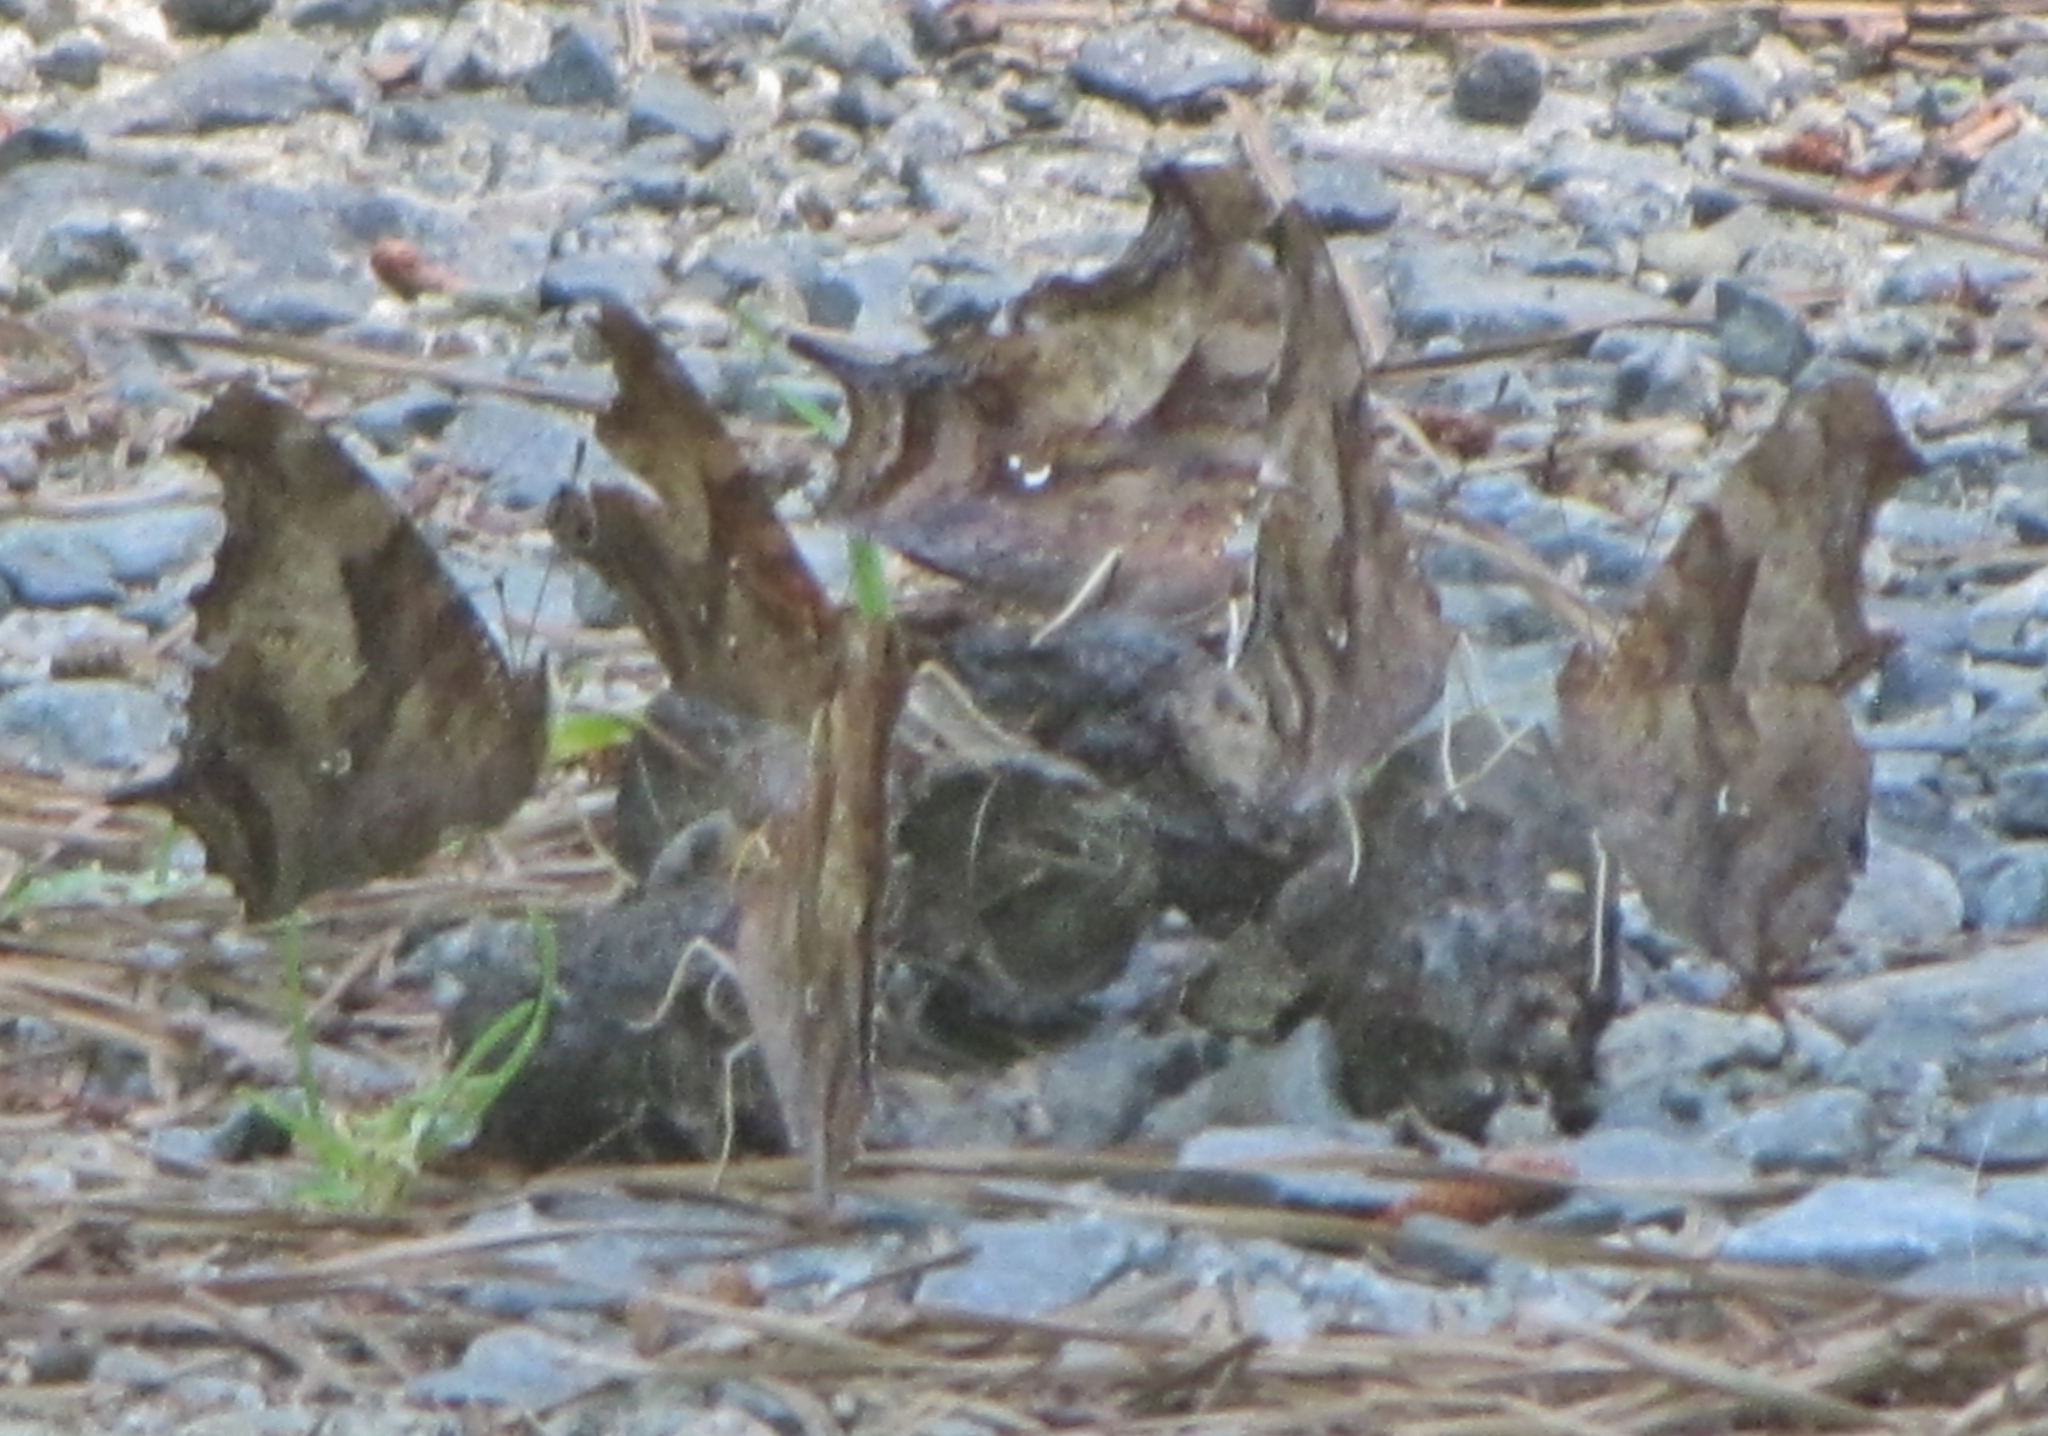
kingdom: Animalia
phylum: Arthropoda
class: Insecta
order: Lepidoptera
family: Nymphalidae
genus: Polygonia
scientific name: Polygonia interrogationis
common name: Question mark
